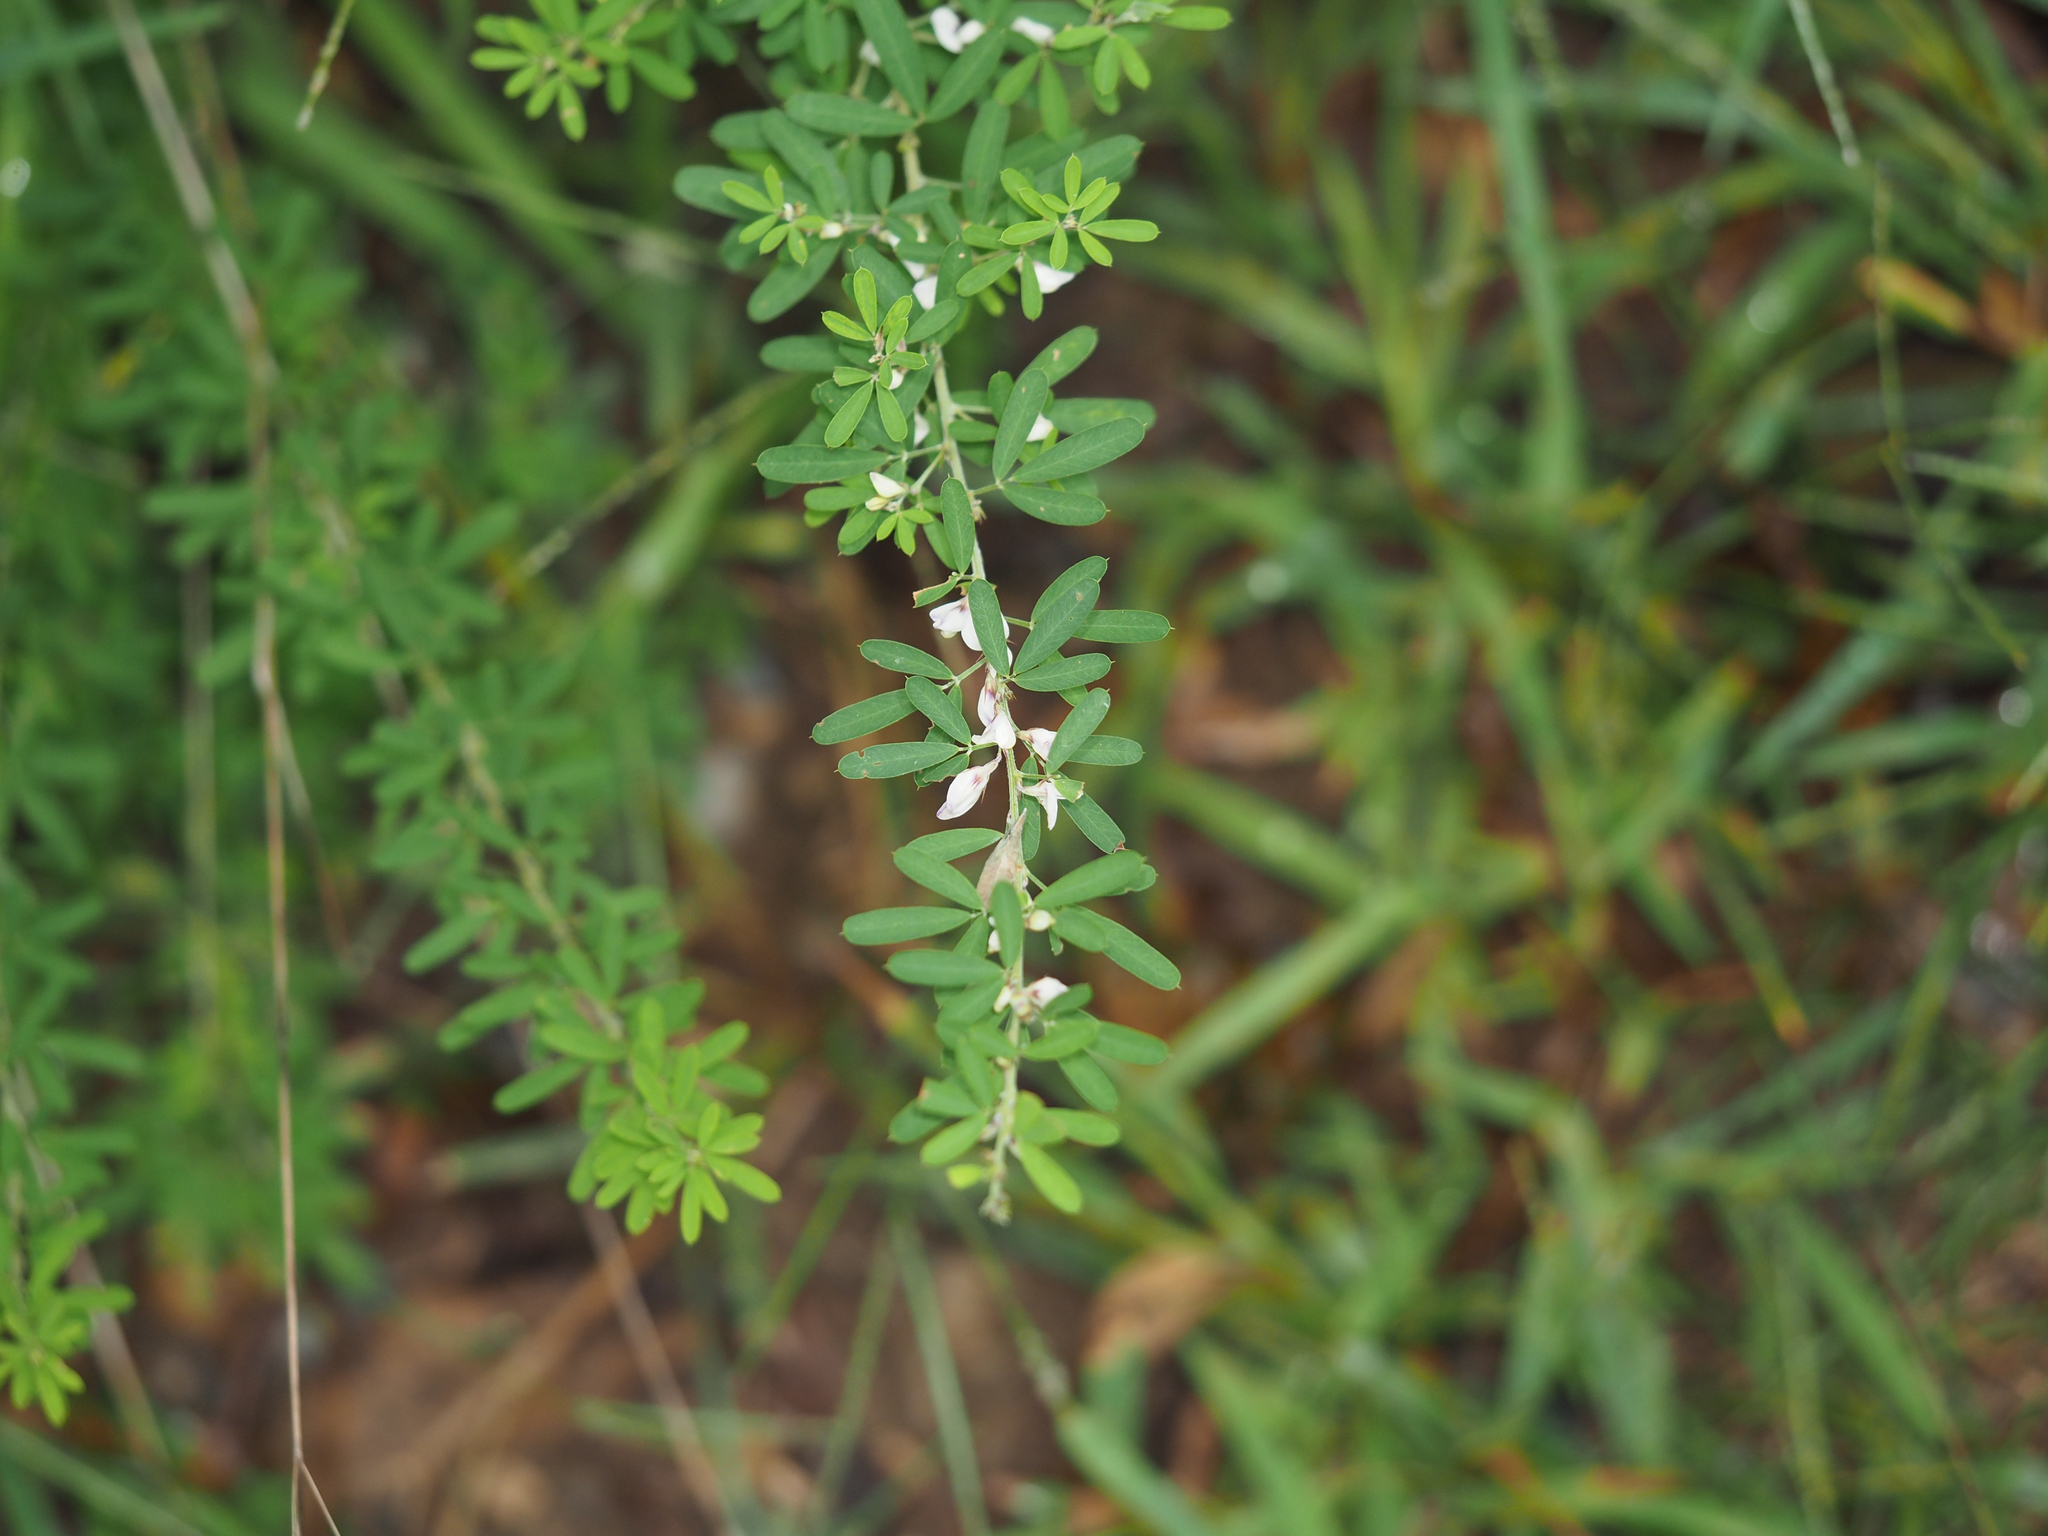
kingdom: Plantae
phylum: Tracheophyta
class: Magnoliopsida
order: Fabales
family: Fabaceae
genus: Lespedeza
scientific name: Lespedeza cuneata
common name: Chinese bush-clover
